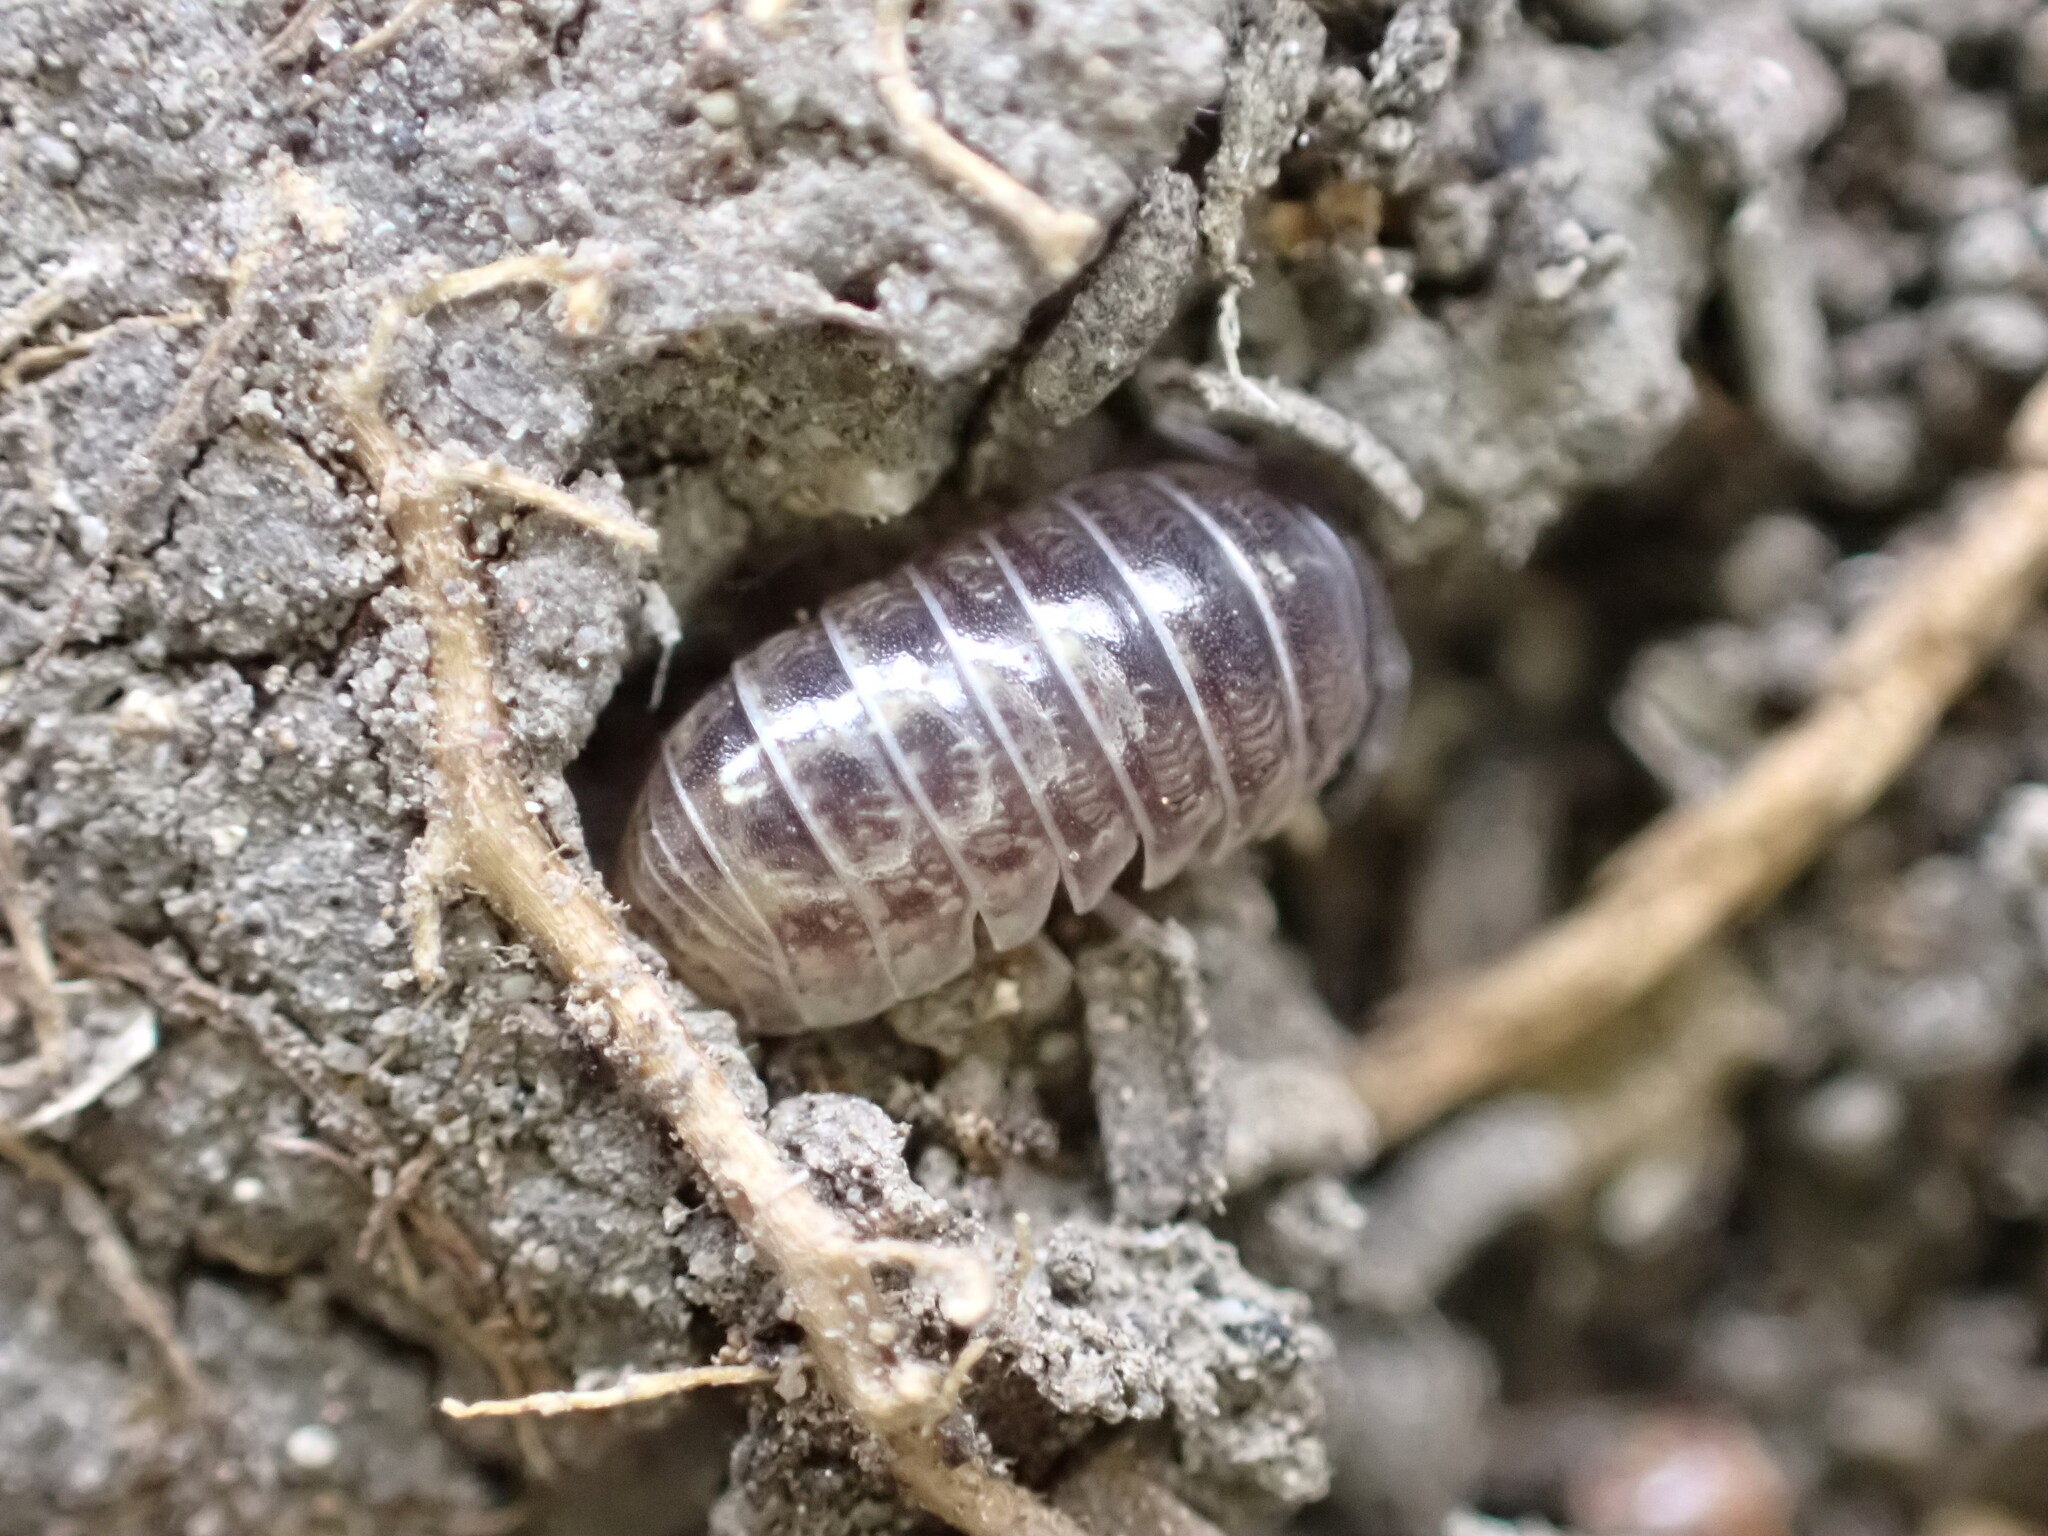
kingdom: Animalia
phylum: Arthropoda
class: Malacostraca
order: Isopoda
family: Armadillidiidae
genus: Armadillidium
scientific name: Armadillidium vulgare
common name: Common pill woodlouse
